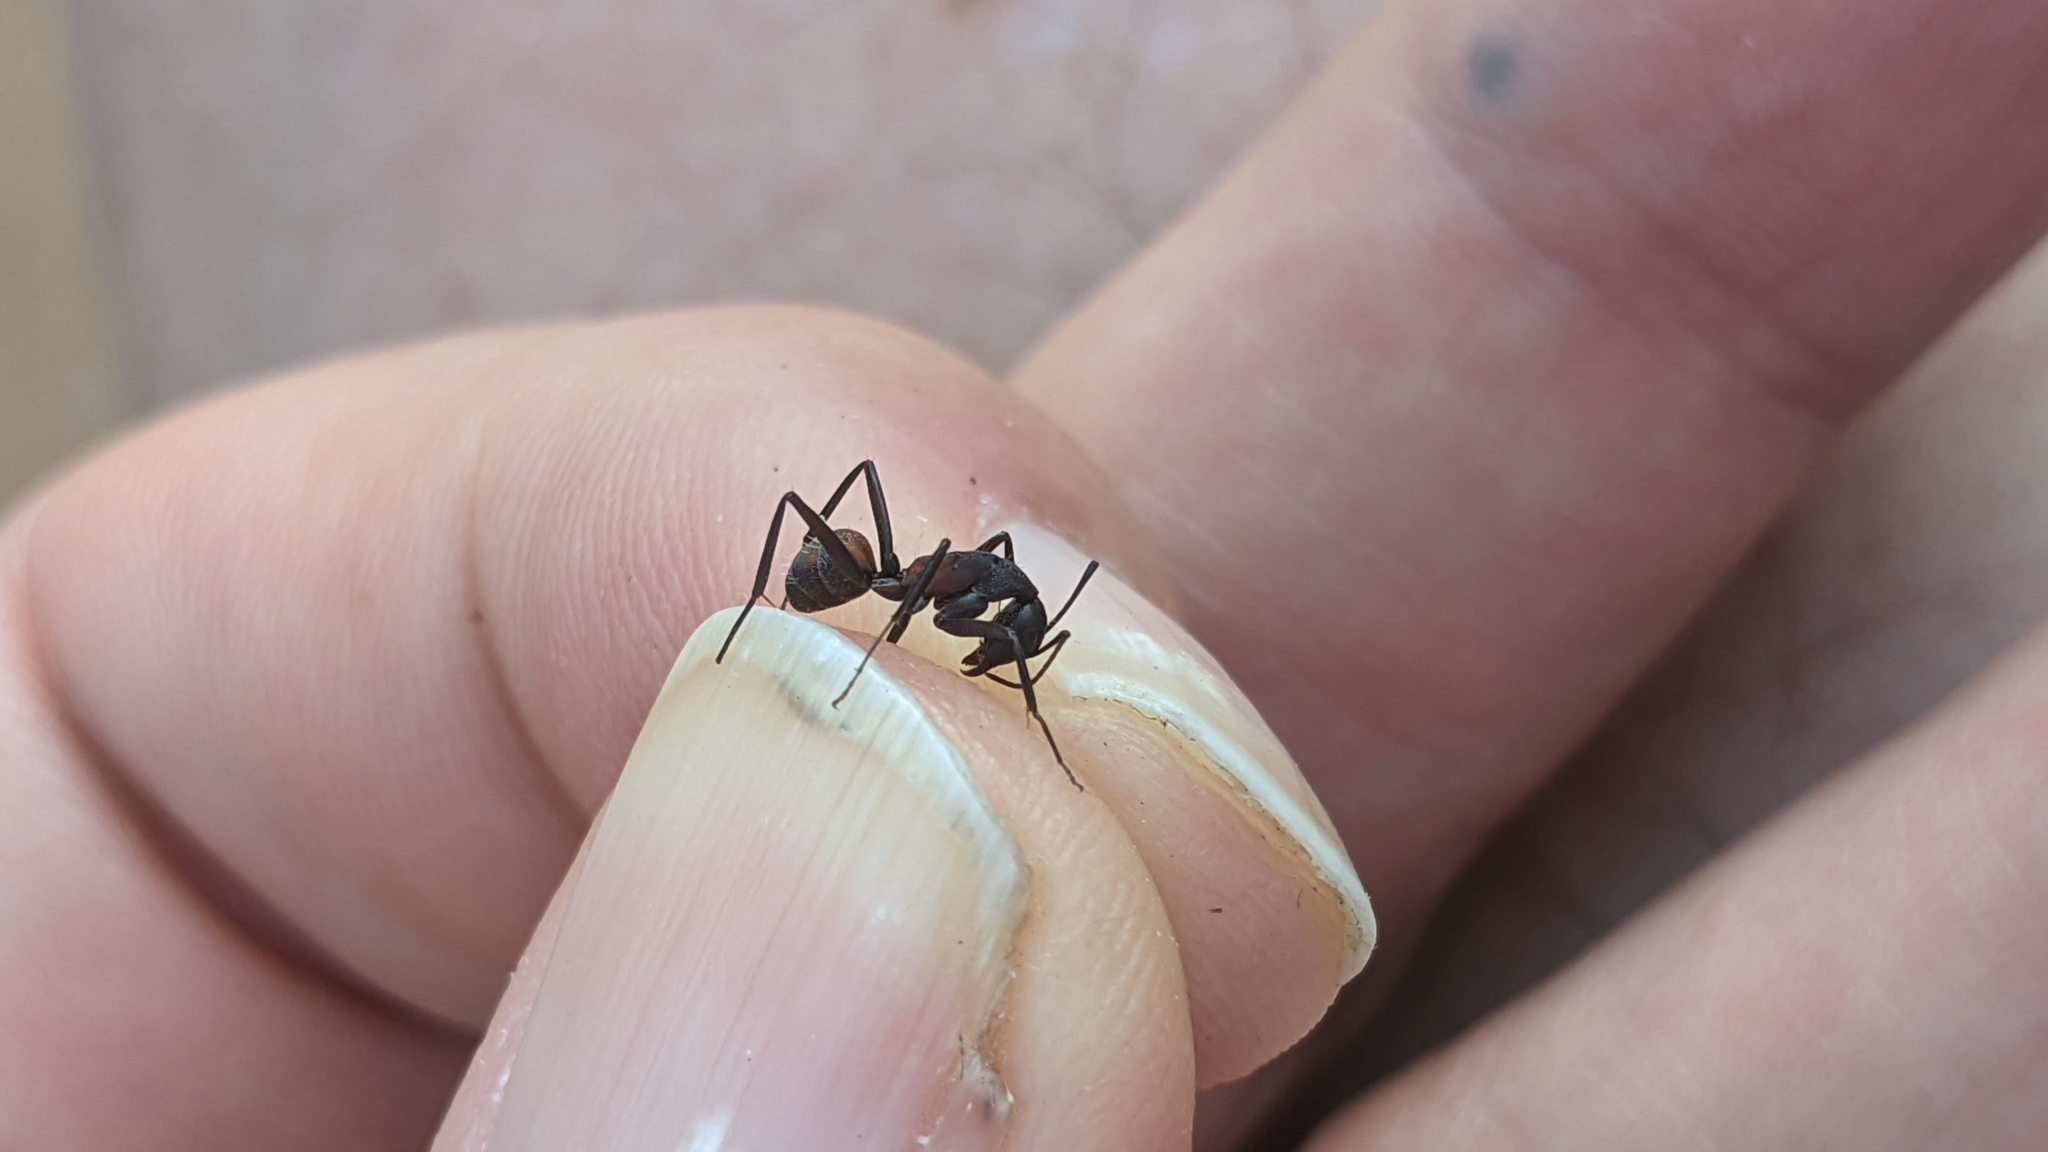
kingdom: Animalia
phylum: Arthropoda
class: Insecta
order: Hymenoptera
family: Formicidae
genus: Camponotus
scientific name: Camponotus cruentatus
